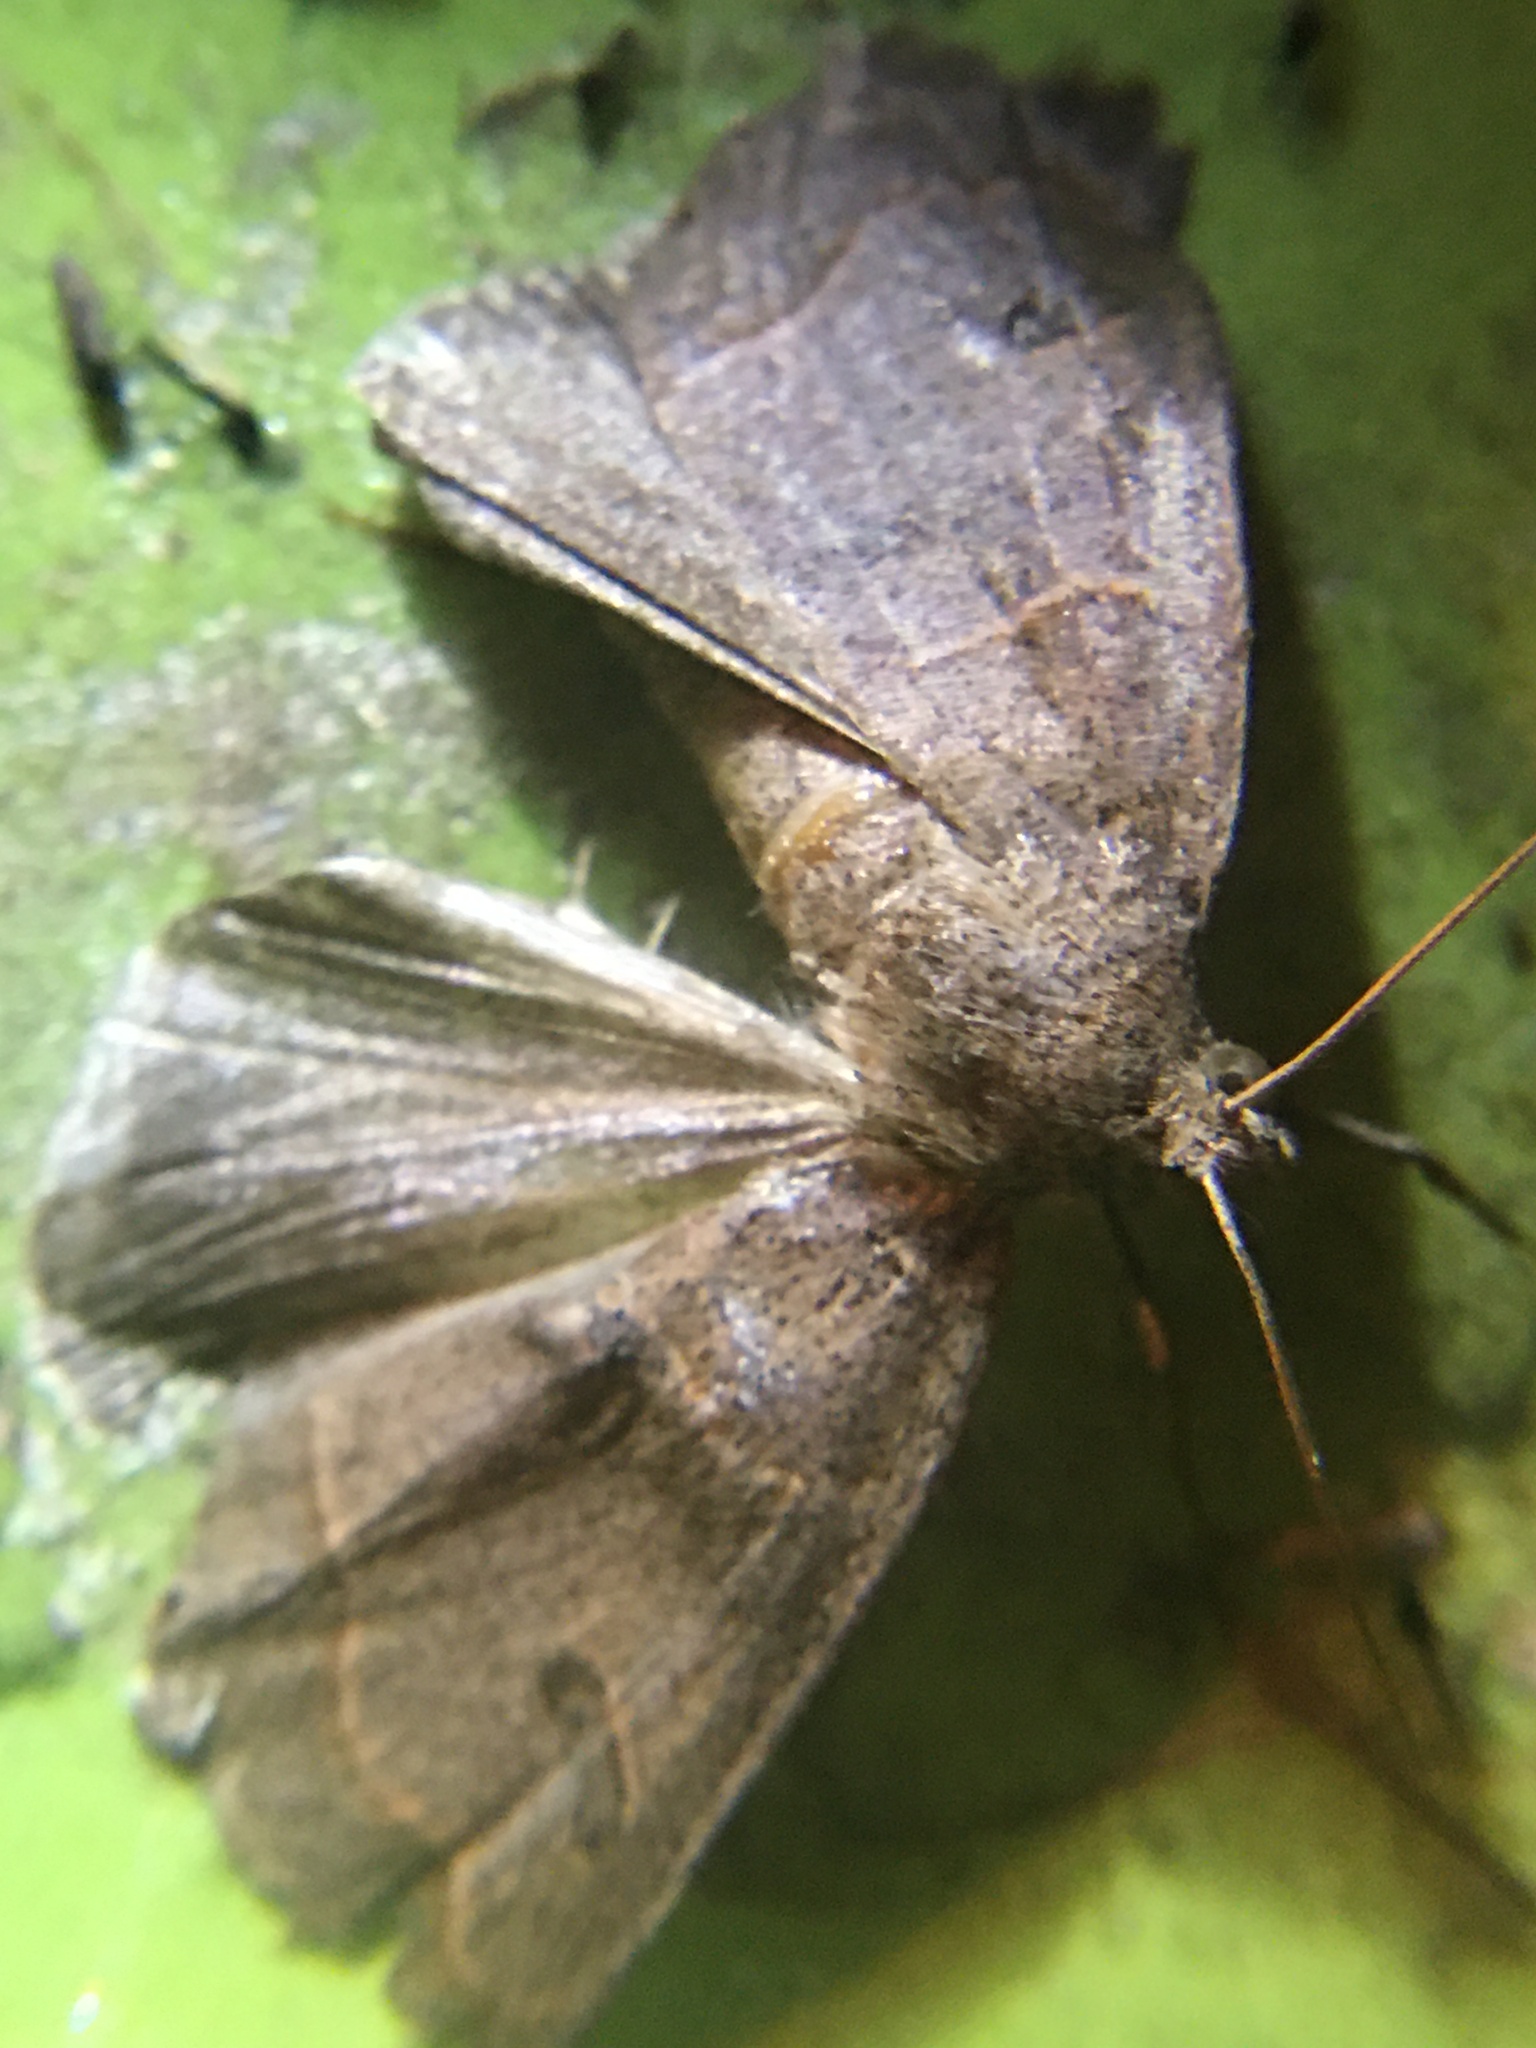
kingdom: Animalia
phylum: Arthropoda
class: Insecta
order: Lepidoptera
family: Erebidae
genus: Phoberia
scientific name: Phoberia atomaris
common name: Common oak moth
